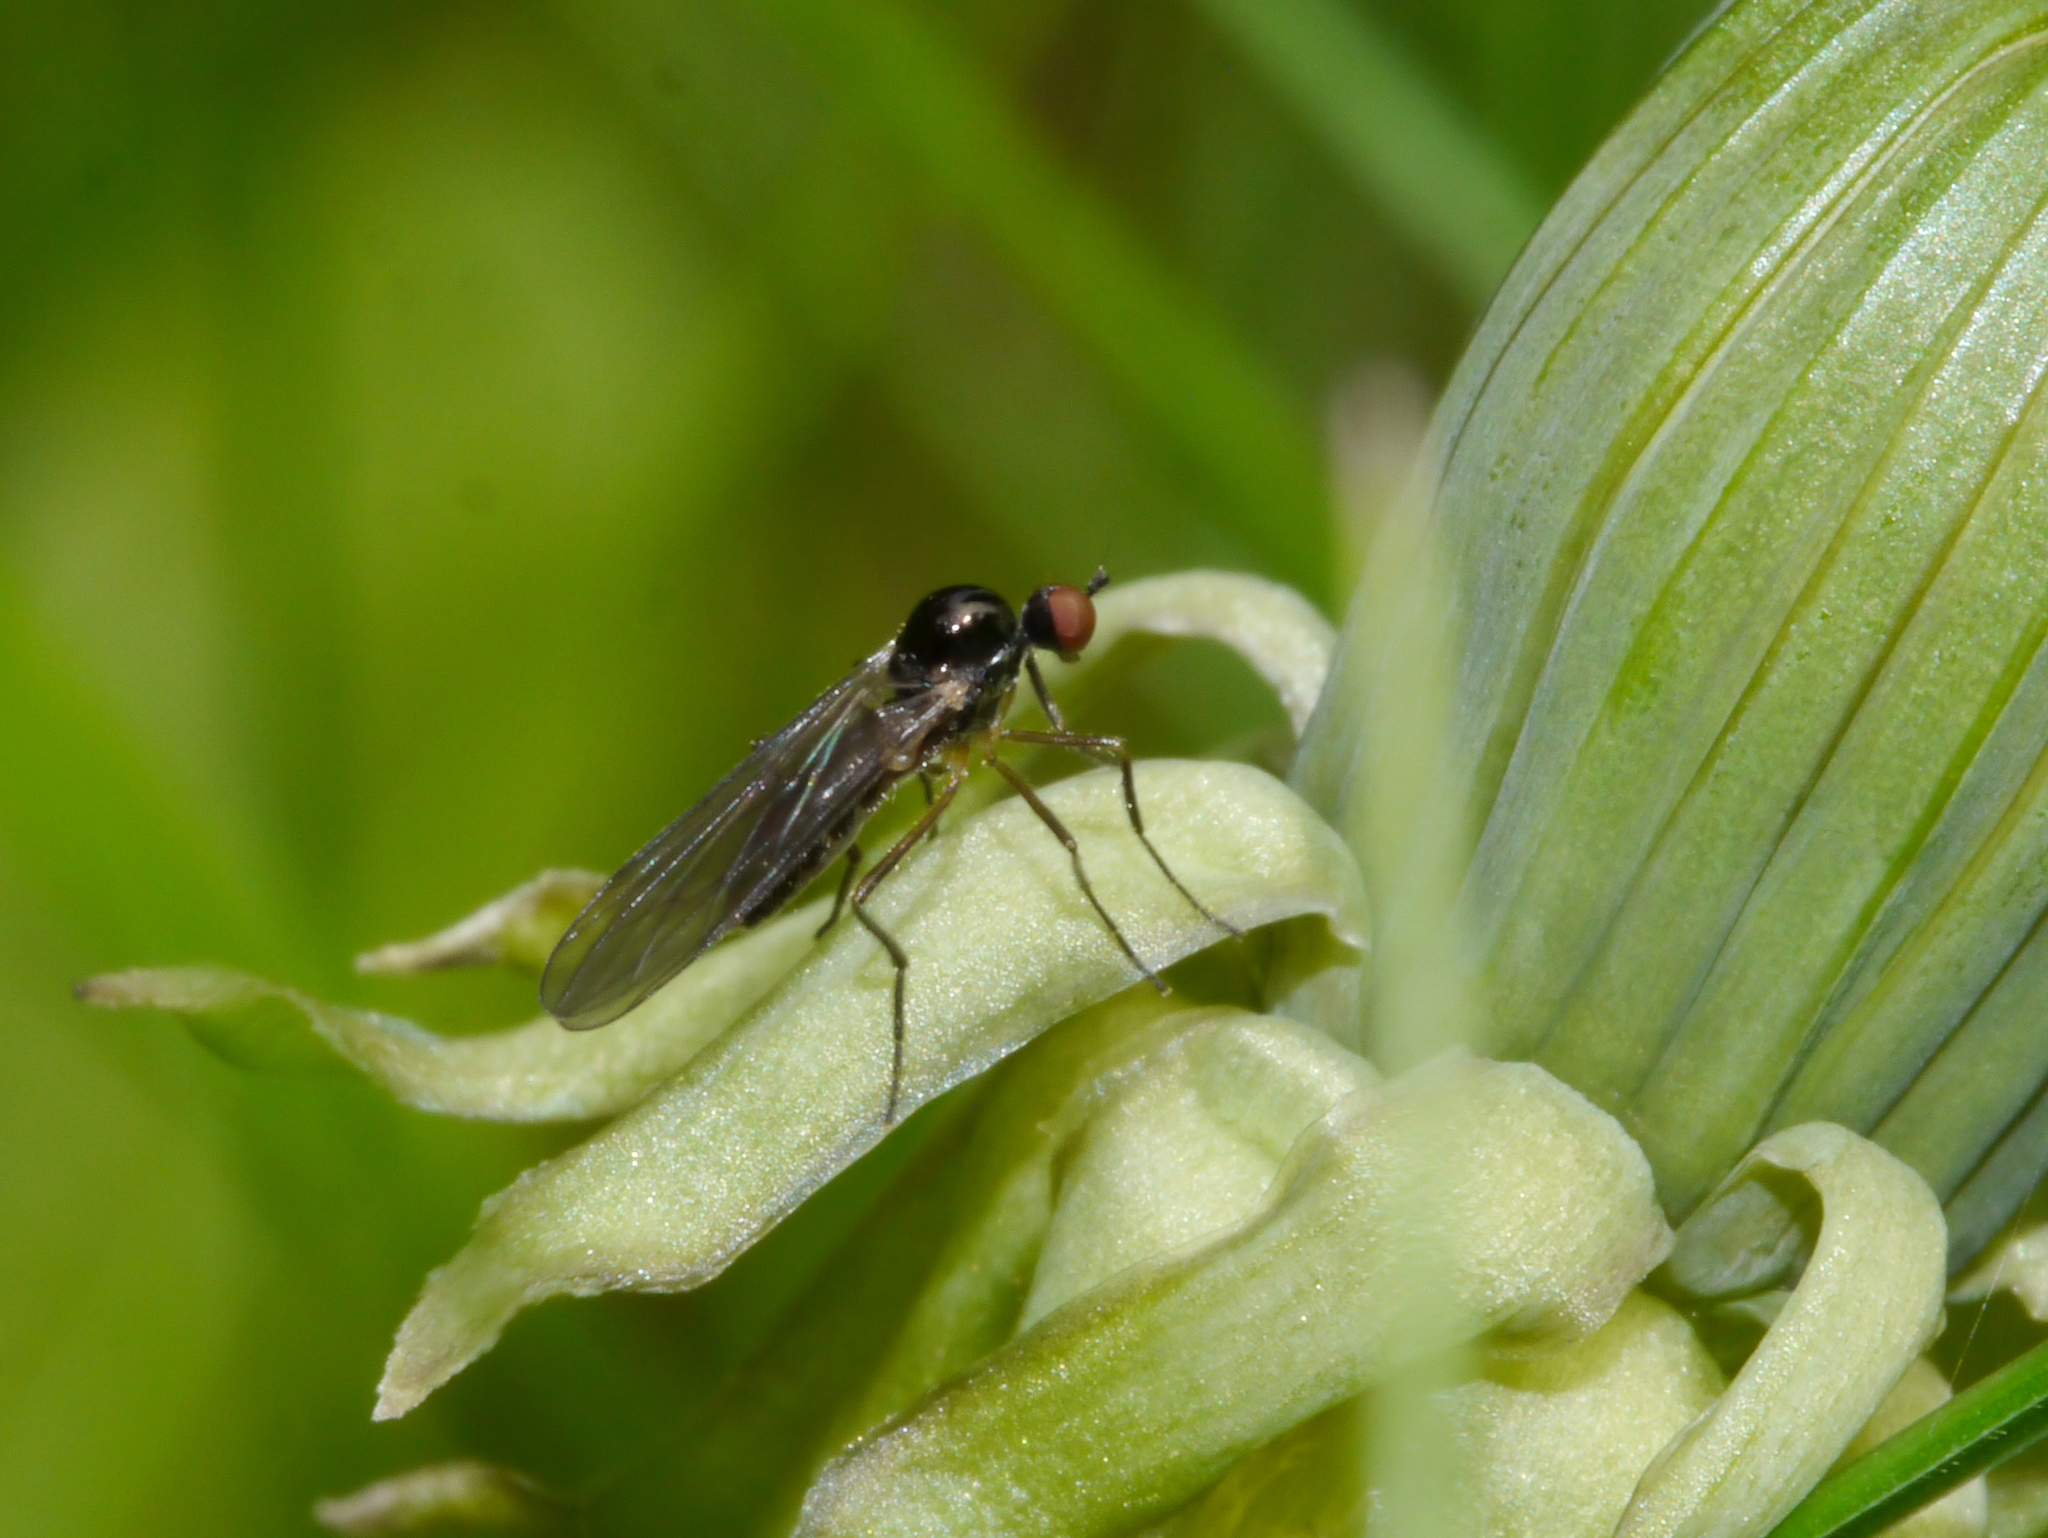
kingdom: Animalia
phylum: Arthropoda
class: Insecta
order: Diptera
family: Hybotidae
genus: Ocydromia
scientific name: Ocydromia glabricula
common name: Dance fly
